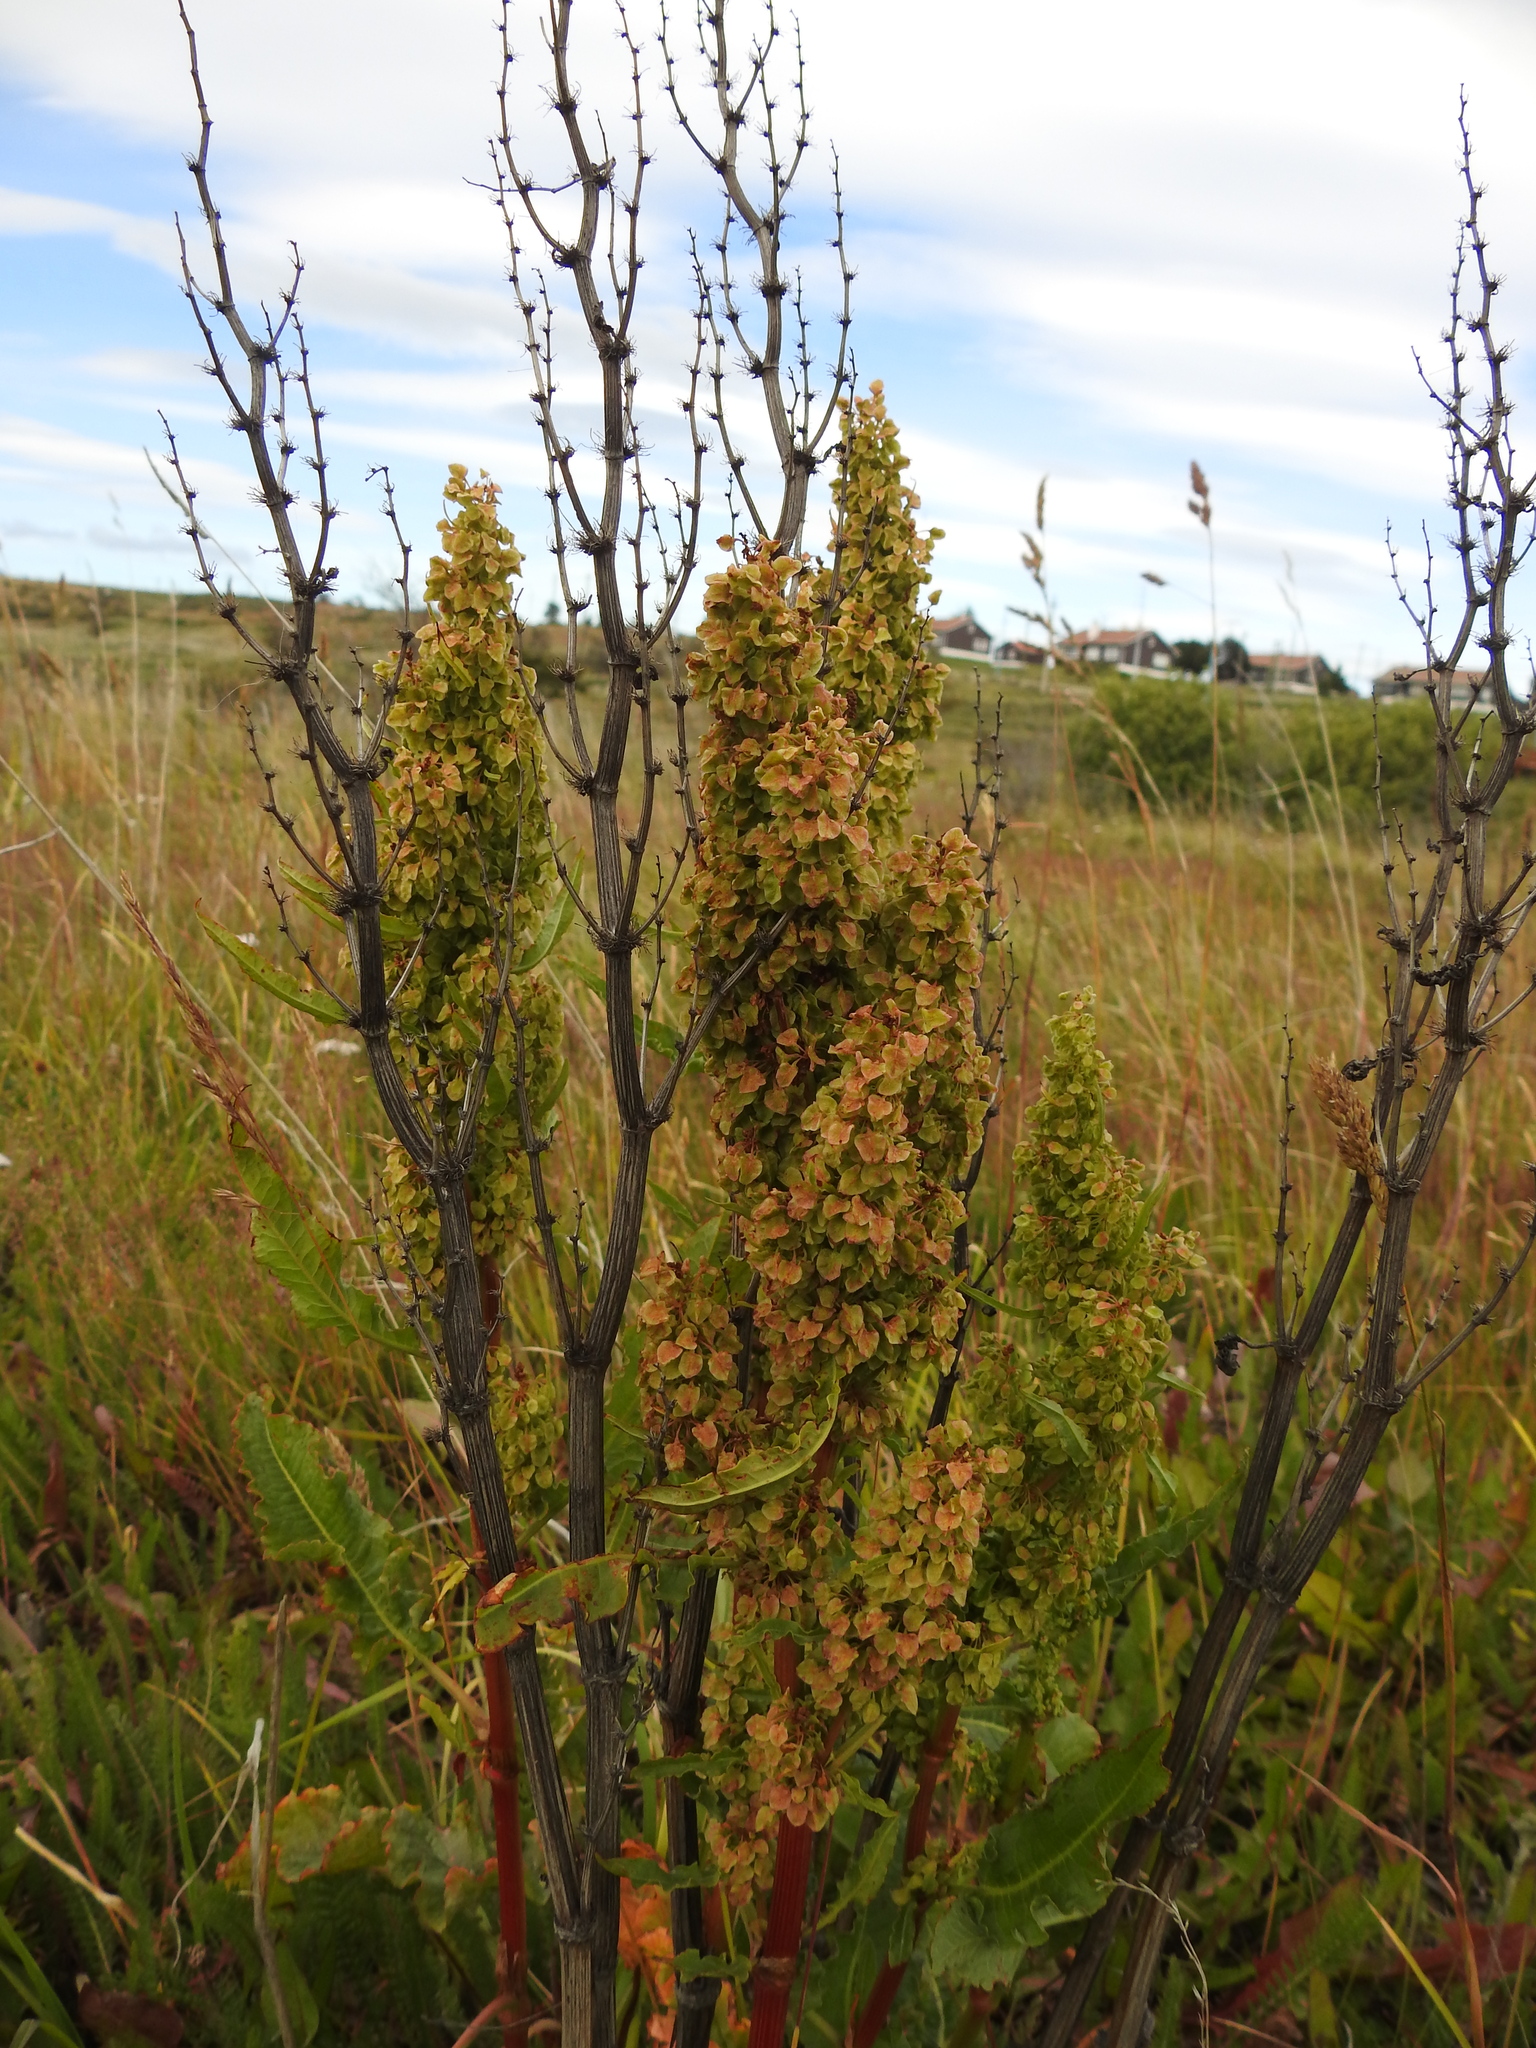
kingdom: Plantae
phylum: Tracheophyta
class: Magnoliopsida
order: Caryophyllales
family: Polygonaceae
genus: Rumex
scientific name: Rumex crispus
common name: Curled dock
